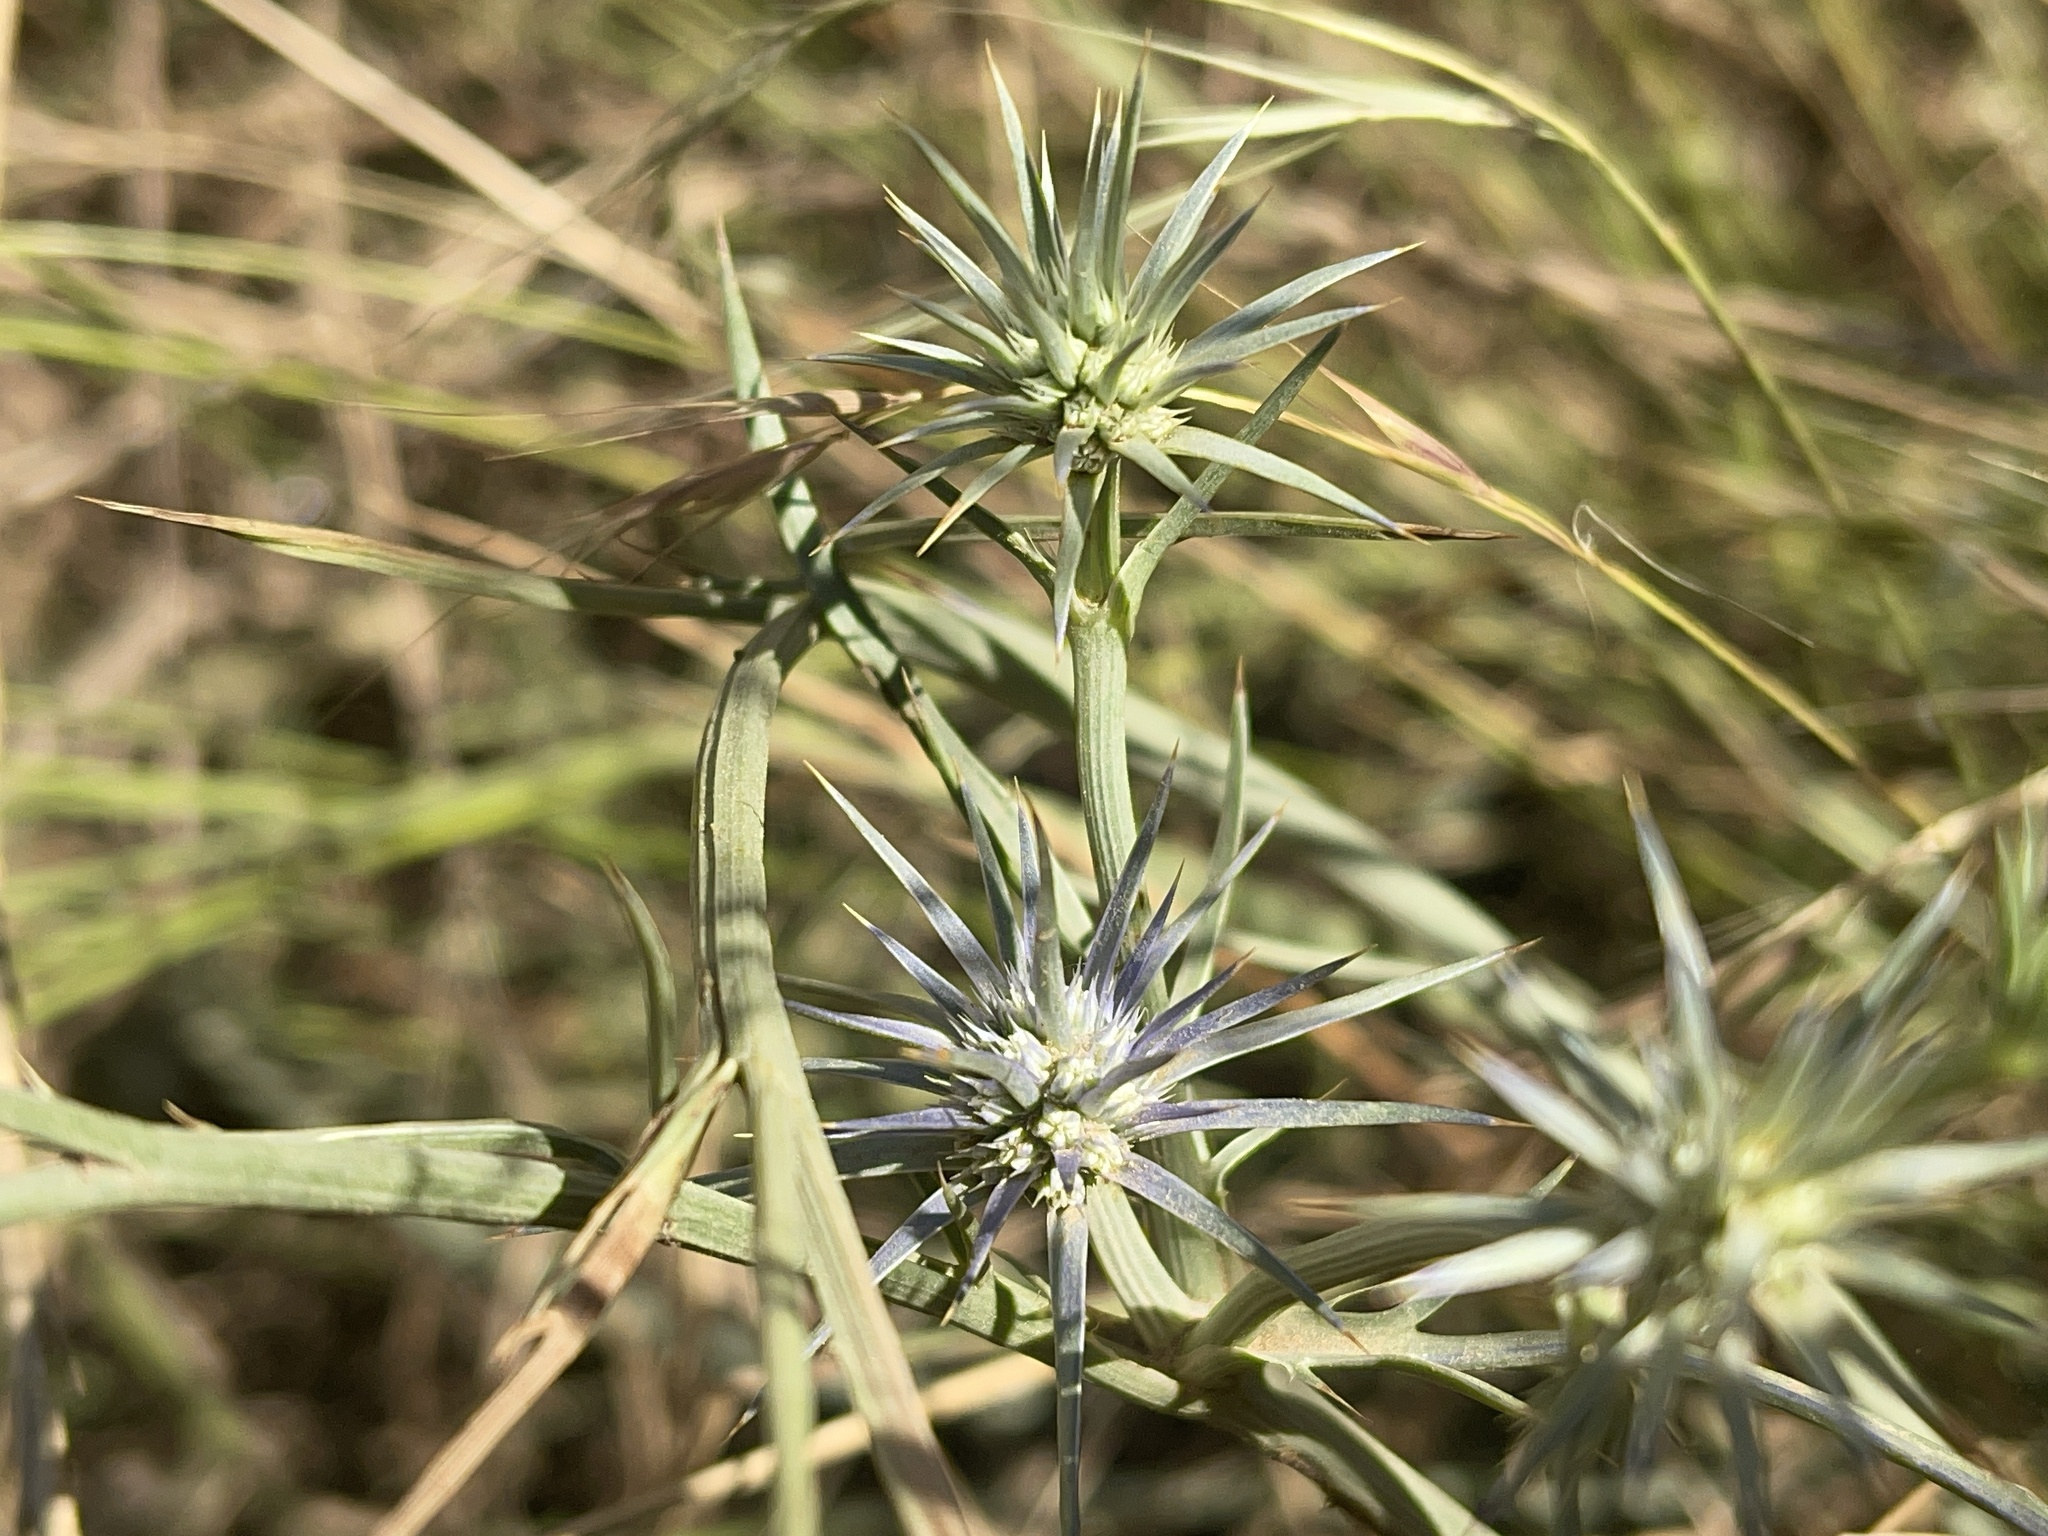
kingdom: Plantae
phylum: Tracheophyta
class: Magnoliopsida
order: Apiales
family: Apiaceae
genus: Eryngium
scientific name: Eryngium ovinum
